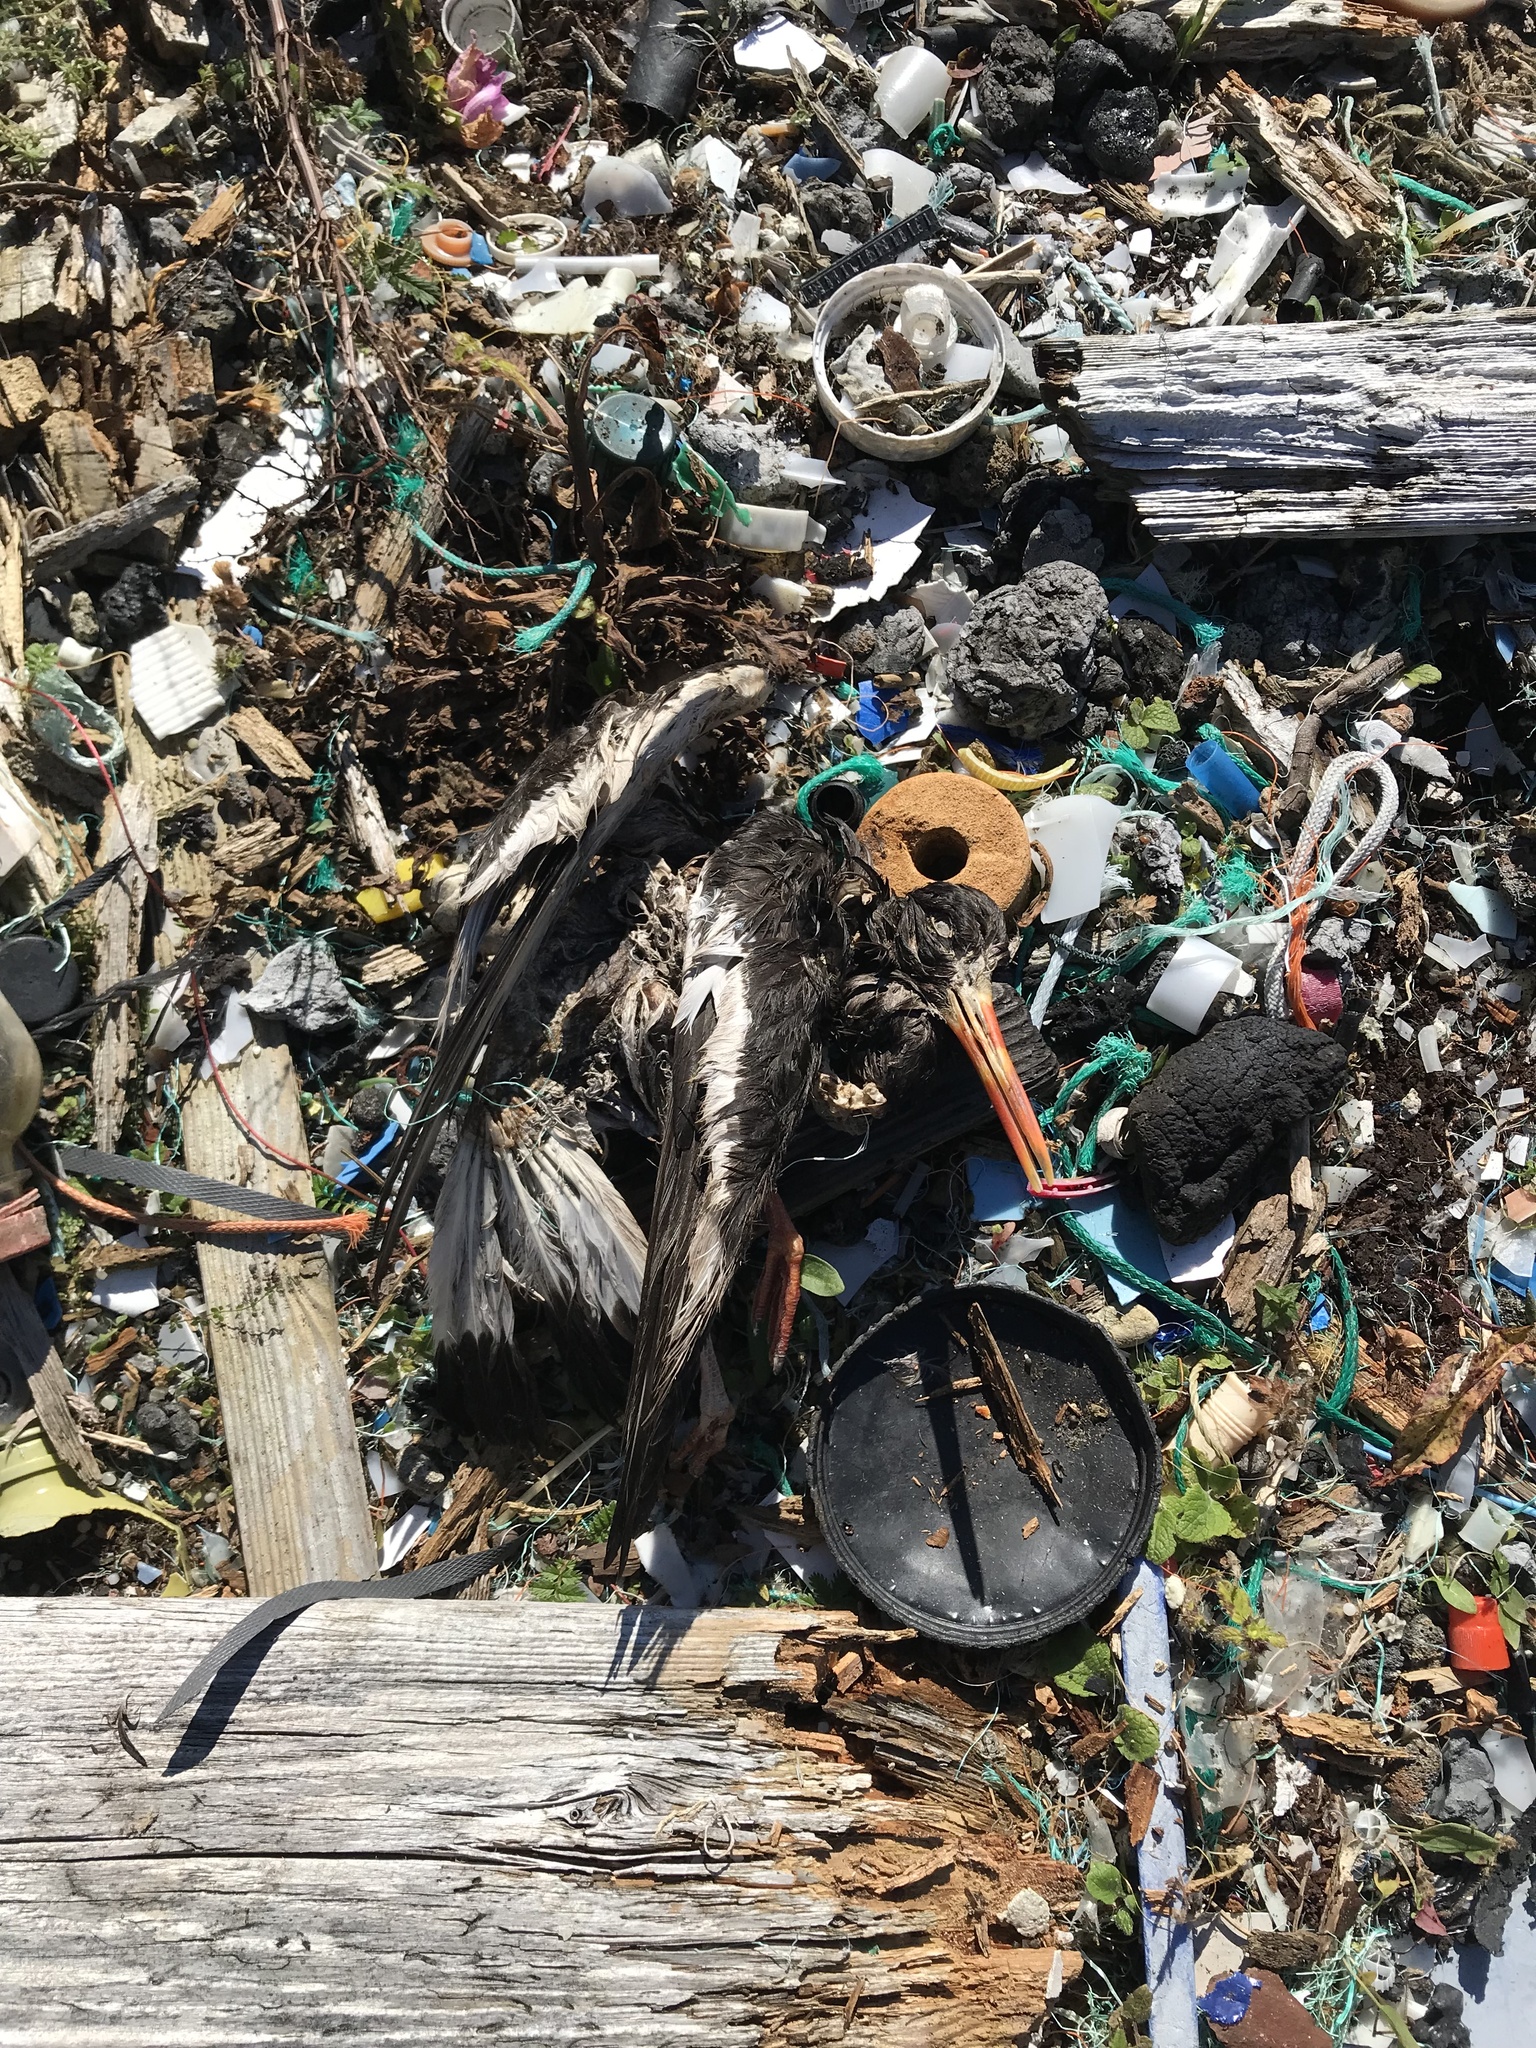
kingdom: Animalia
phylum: Chordata
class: Aves
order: Charadriiformes
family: Haematopodidae
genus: Haematopus
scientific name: Haematopus ostralegus
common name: Eurasian oystercatcher
